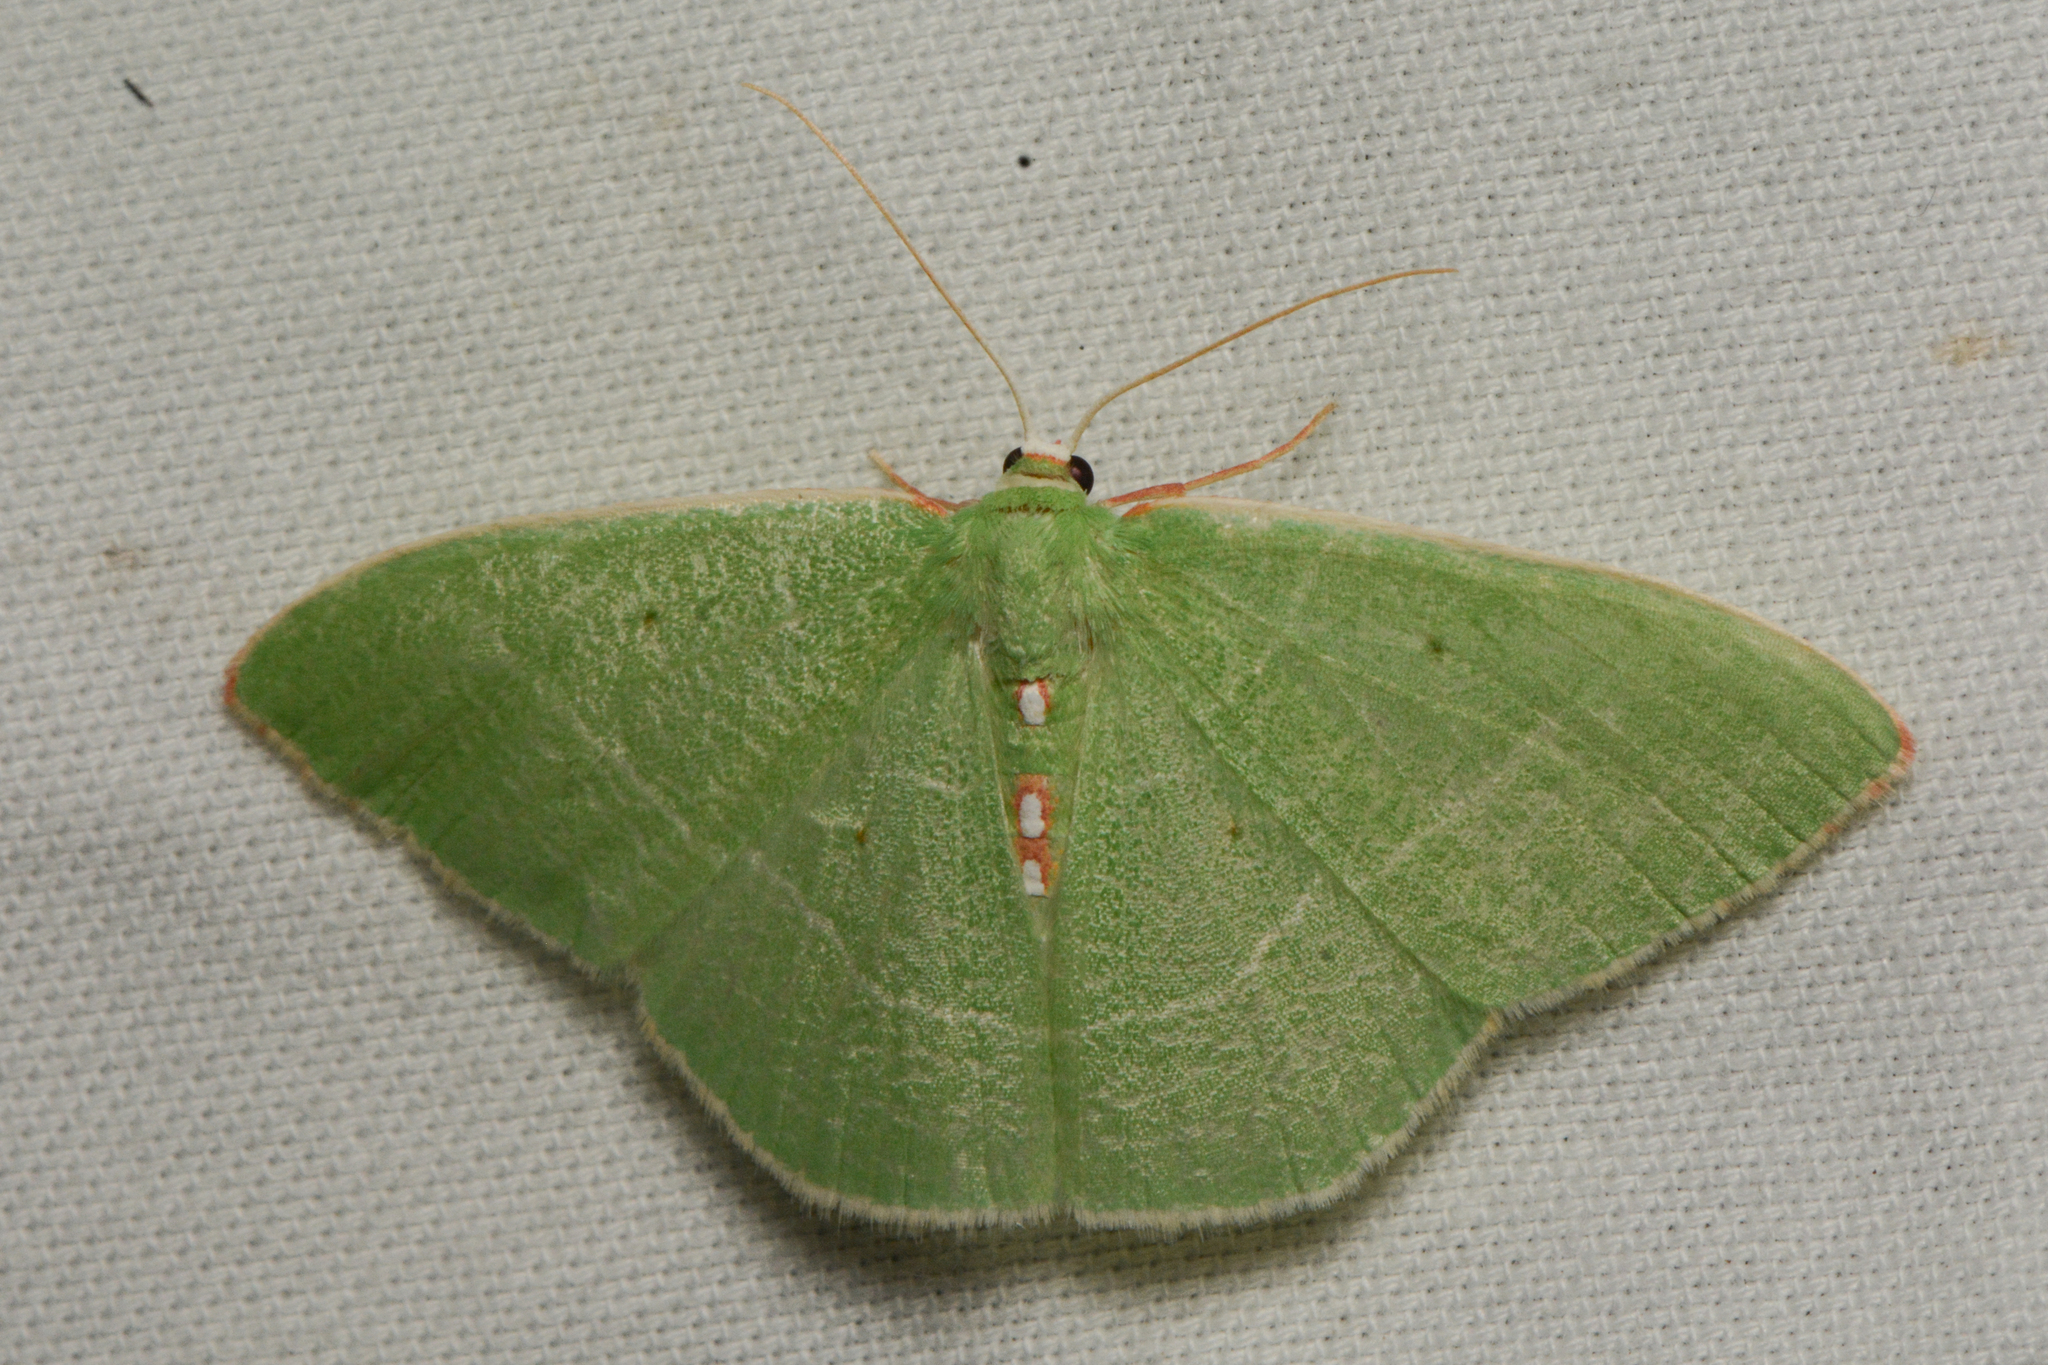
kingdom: Animalia
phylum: Arthropoda
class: Insecta
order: Lepidoptera
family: Geometridae
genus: Nemoria
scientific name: Nemoria darwiniata
